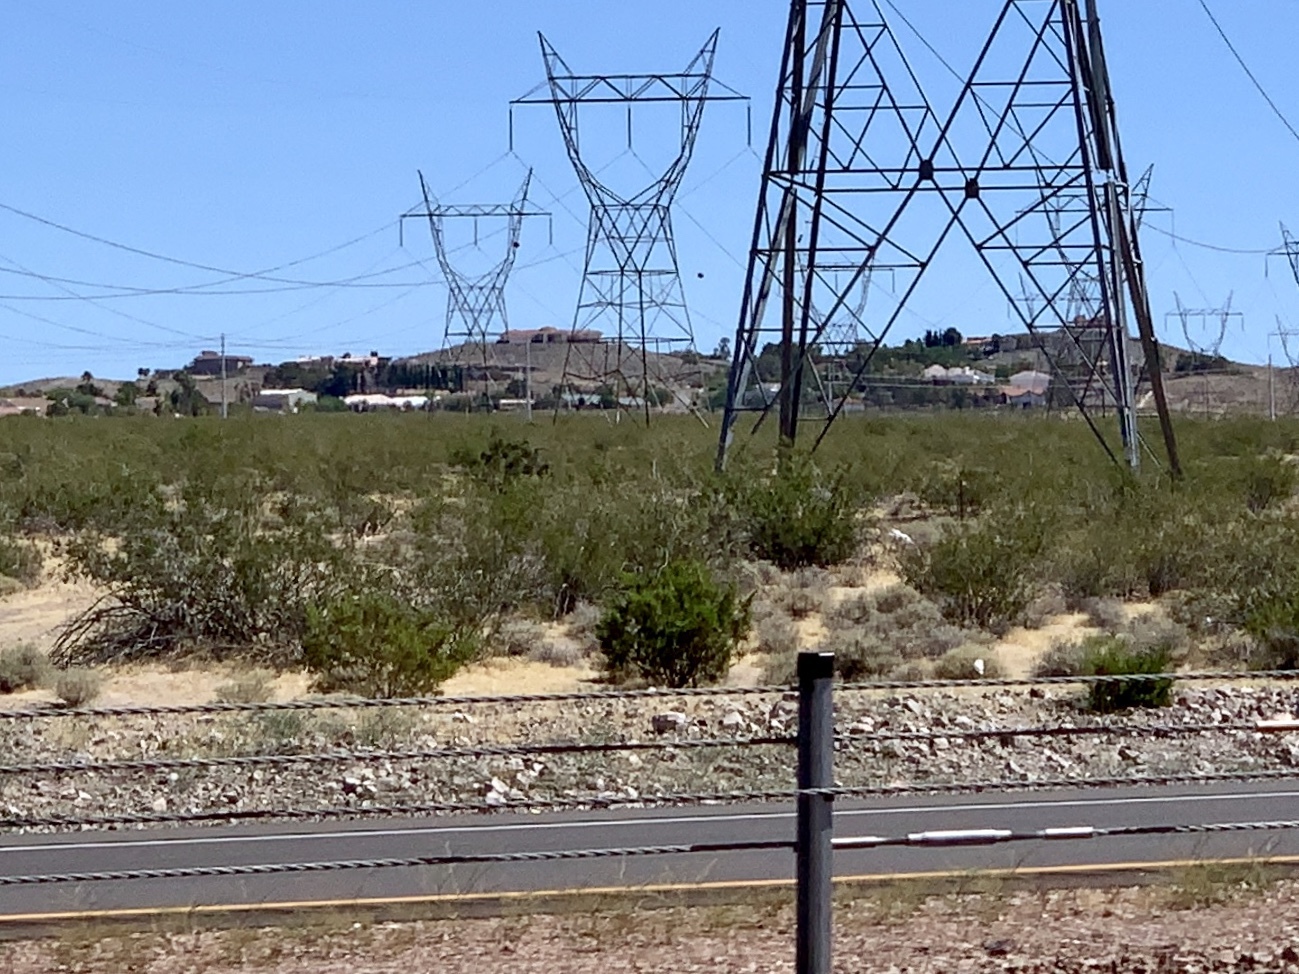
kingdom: Plantae
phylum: Tracheophyta
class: Magnoliopsida
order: Zygophyllales
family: Zygophyllaceae
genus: Larrea
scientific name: Larrea tridentata
